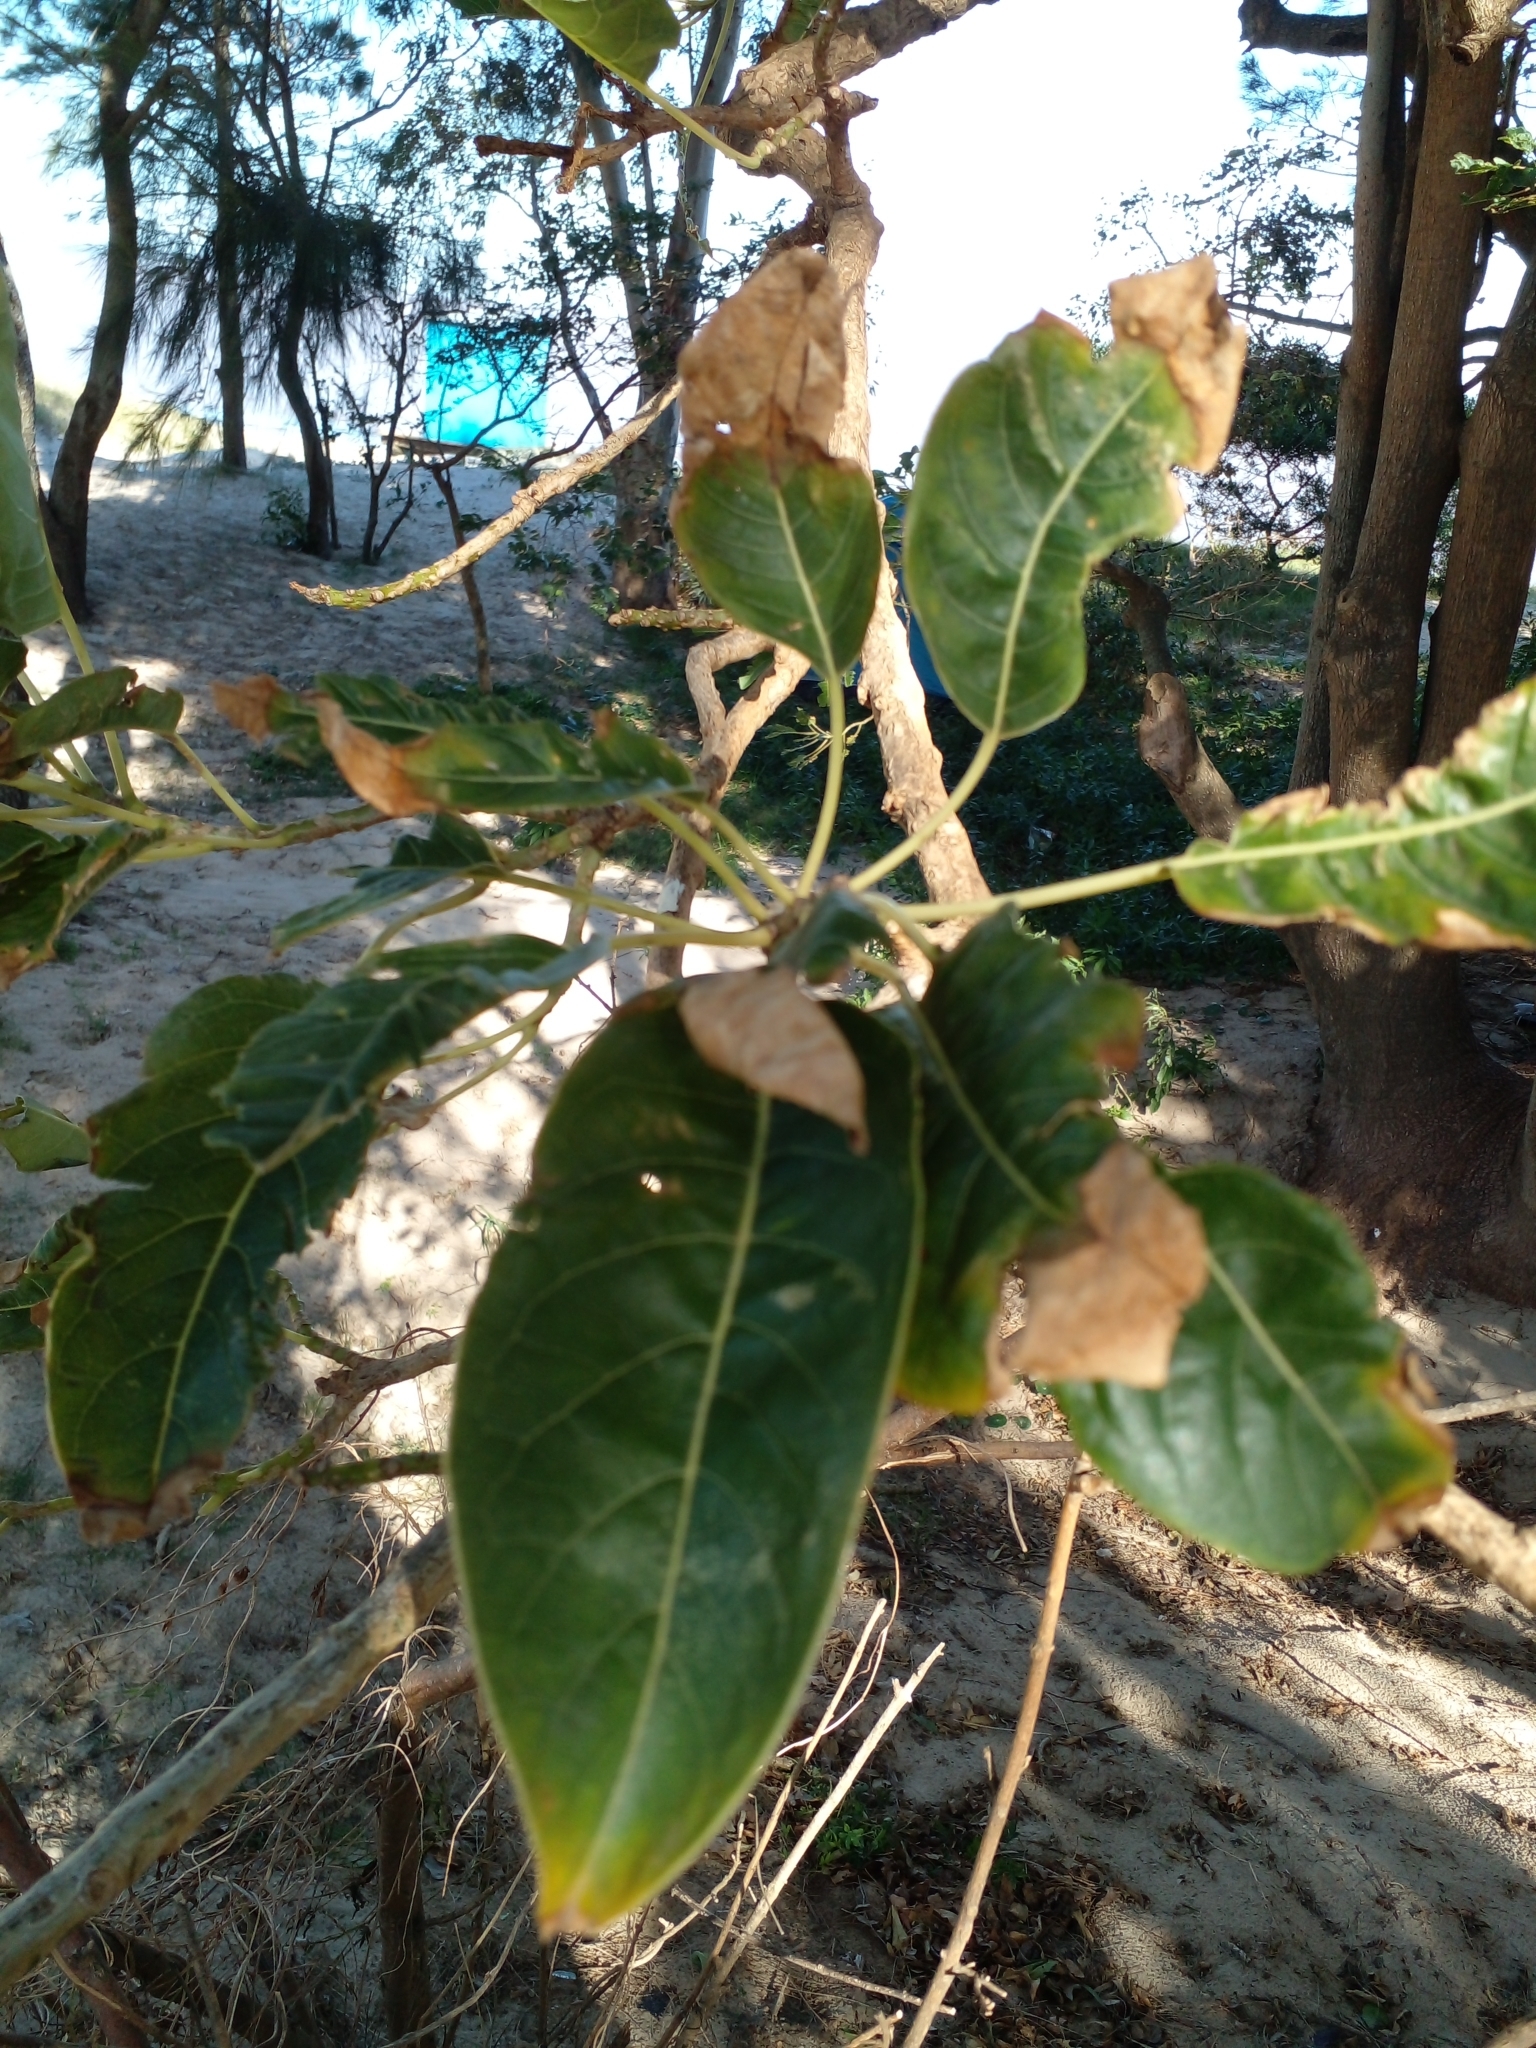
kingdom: Plantae
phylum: Tracheophyta
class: Magnoliopsida
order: Caryophyllales
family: Phytolaccaceae
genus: Phytolacca
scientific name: Phytolacca dioica
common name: Pokeweed
